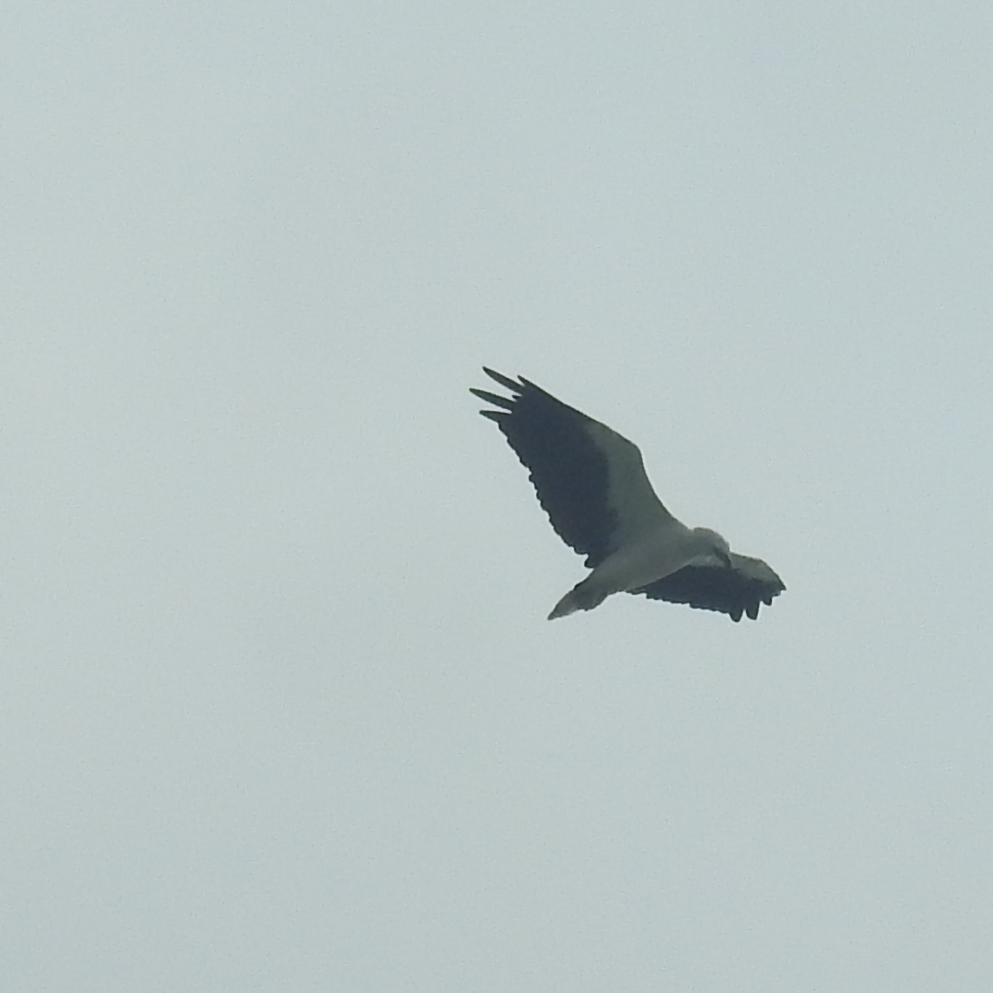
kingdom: Animalia
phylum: Chordata
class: Aves
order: Accipitriformes
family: Accipitridae
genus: Haliaeetus
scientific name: Haliaeetus leucogaster
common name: White-bellied sea eagle
